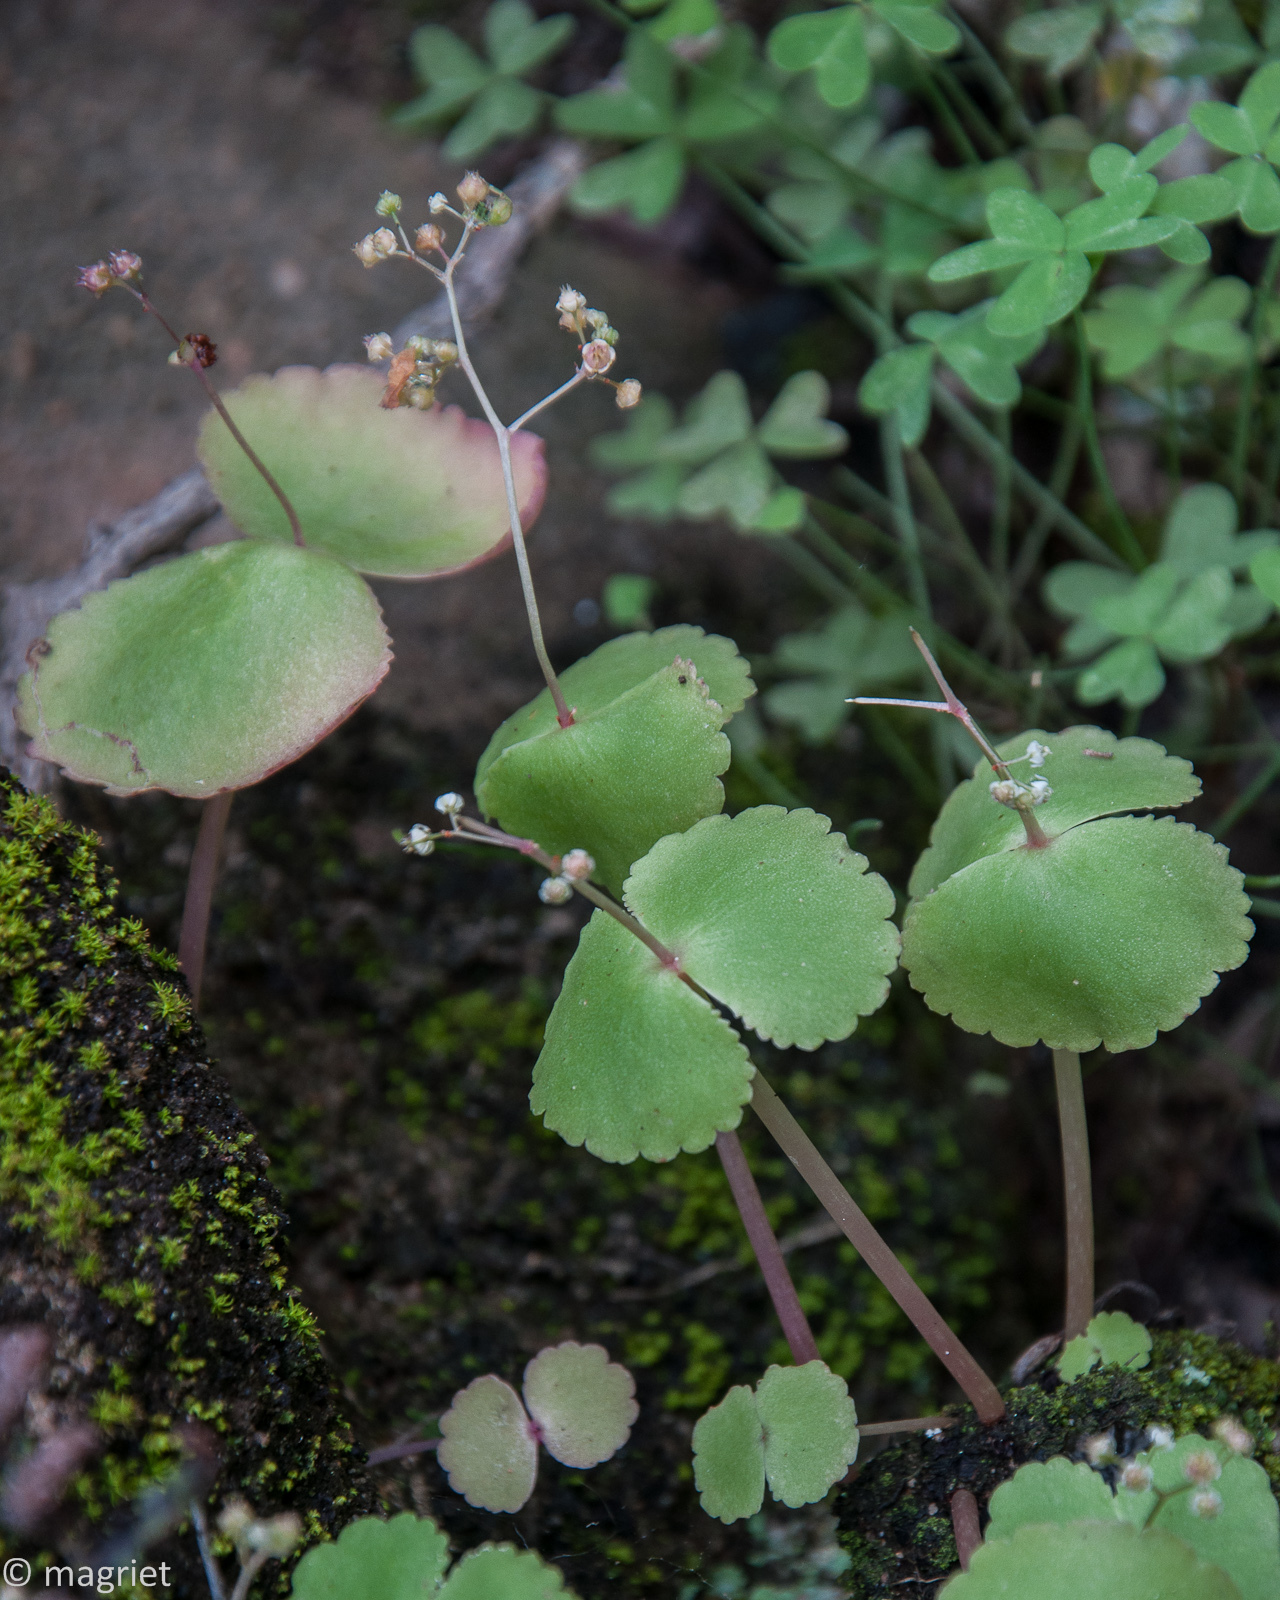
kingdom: Plantae
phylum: Tracheophyta
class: Magnoliopsida
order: Saxifragales
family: Crassulaceae
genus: Crassula
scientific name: Crassula umbella
